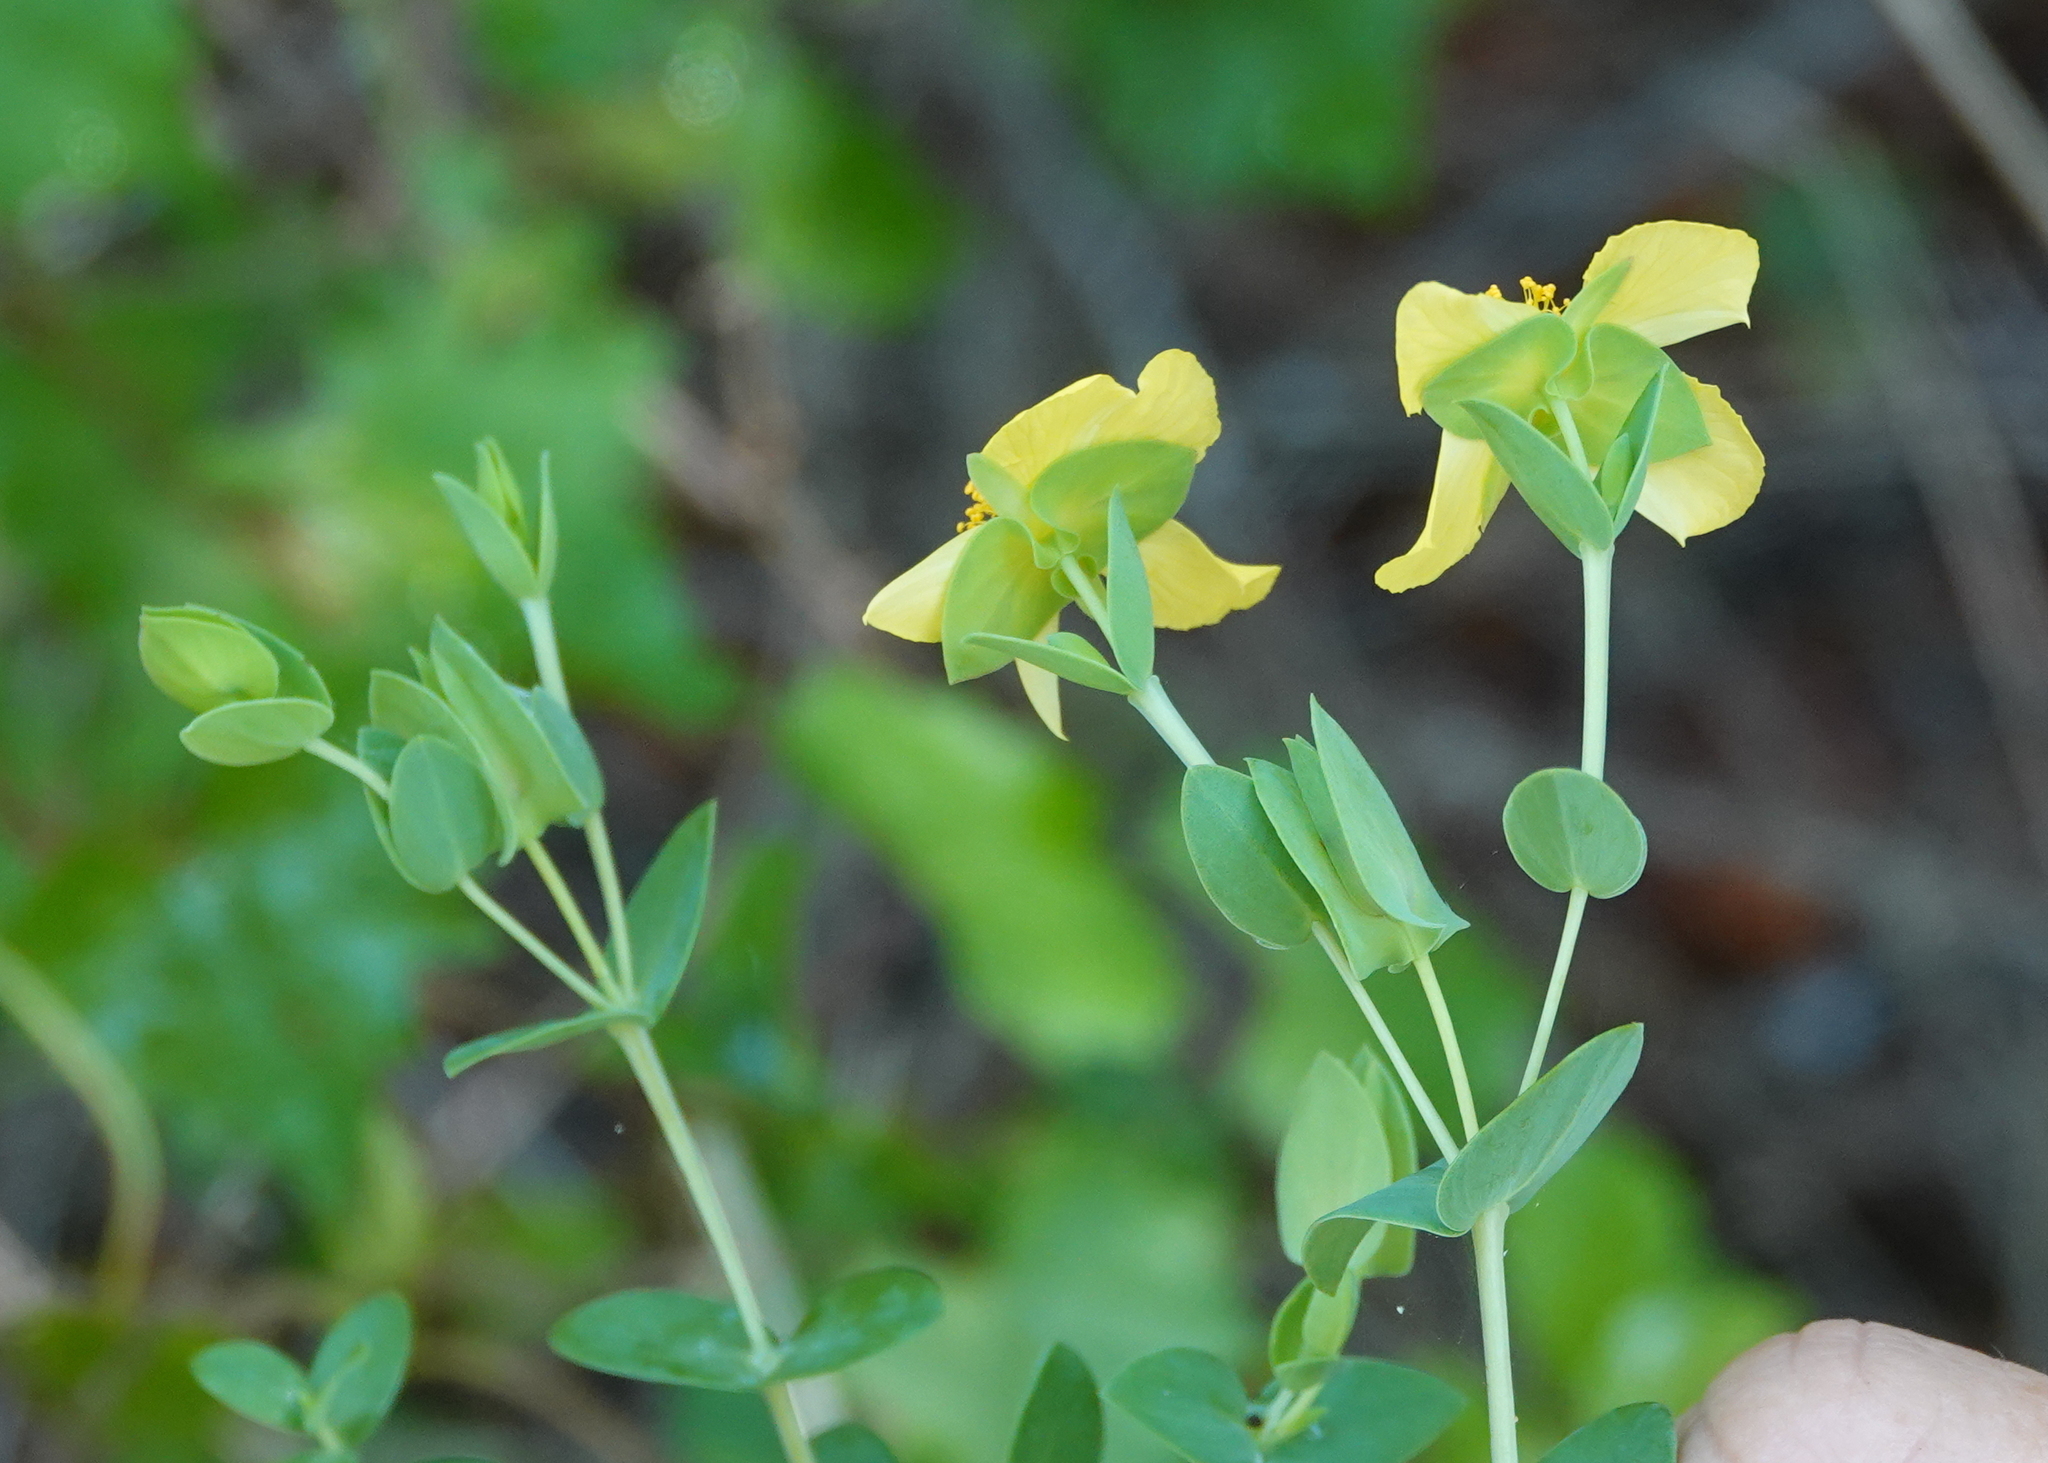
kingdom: Plantae
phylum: Tracheophyta
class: Magnoliopsida
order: Malpighiales
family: Hypericaceae
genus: Hypericum
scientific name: Hypericum tetrapetalum
